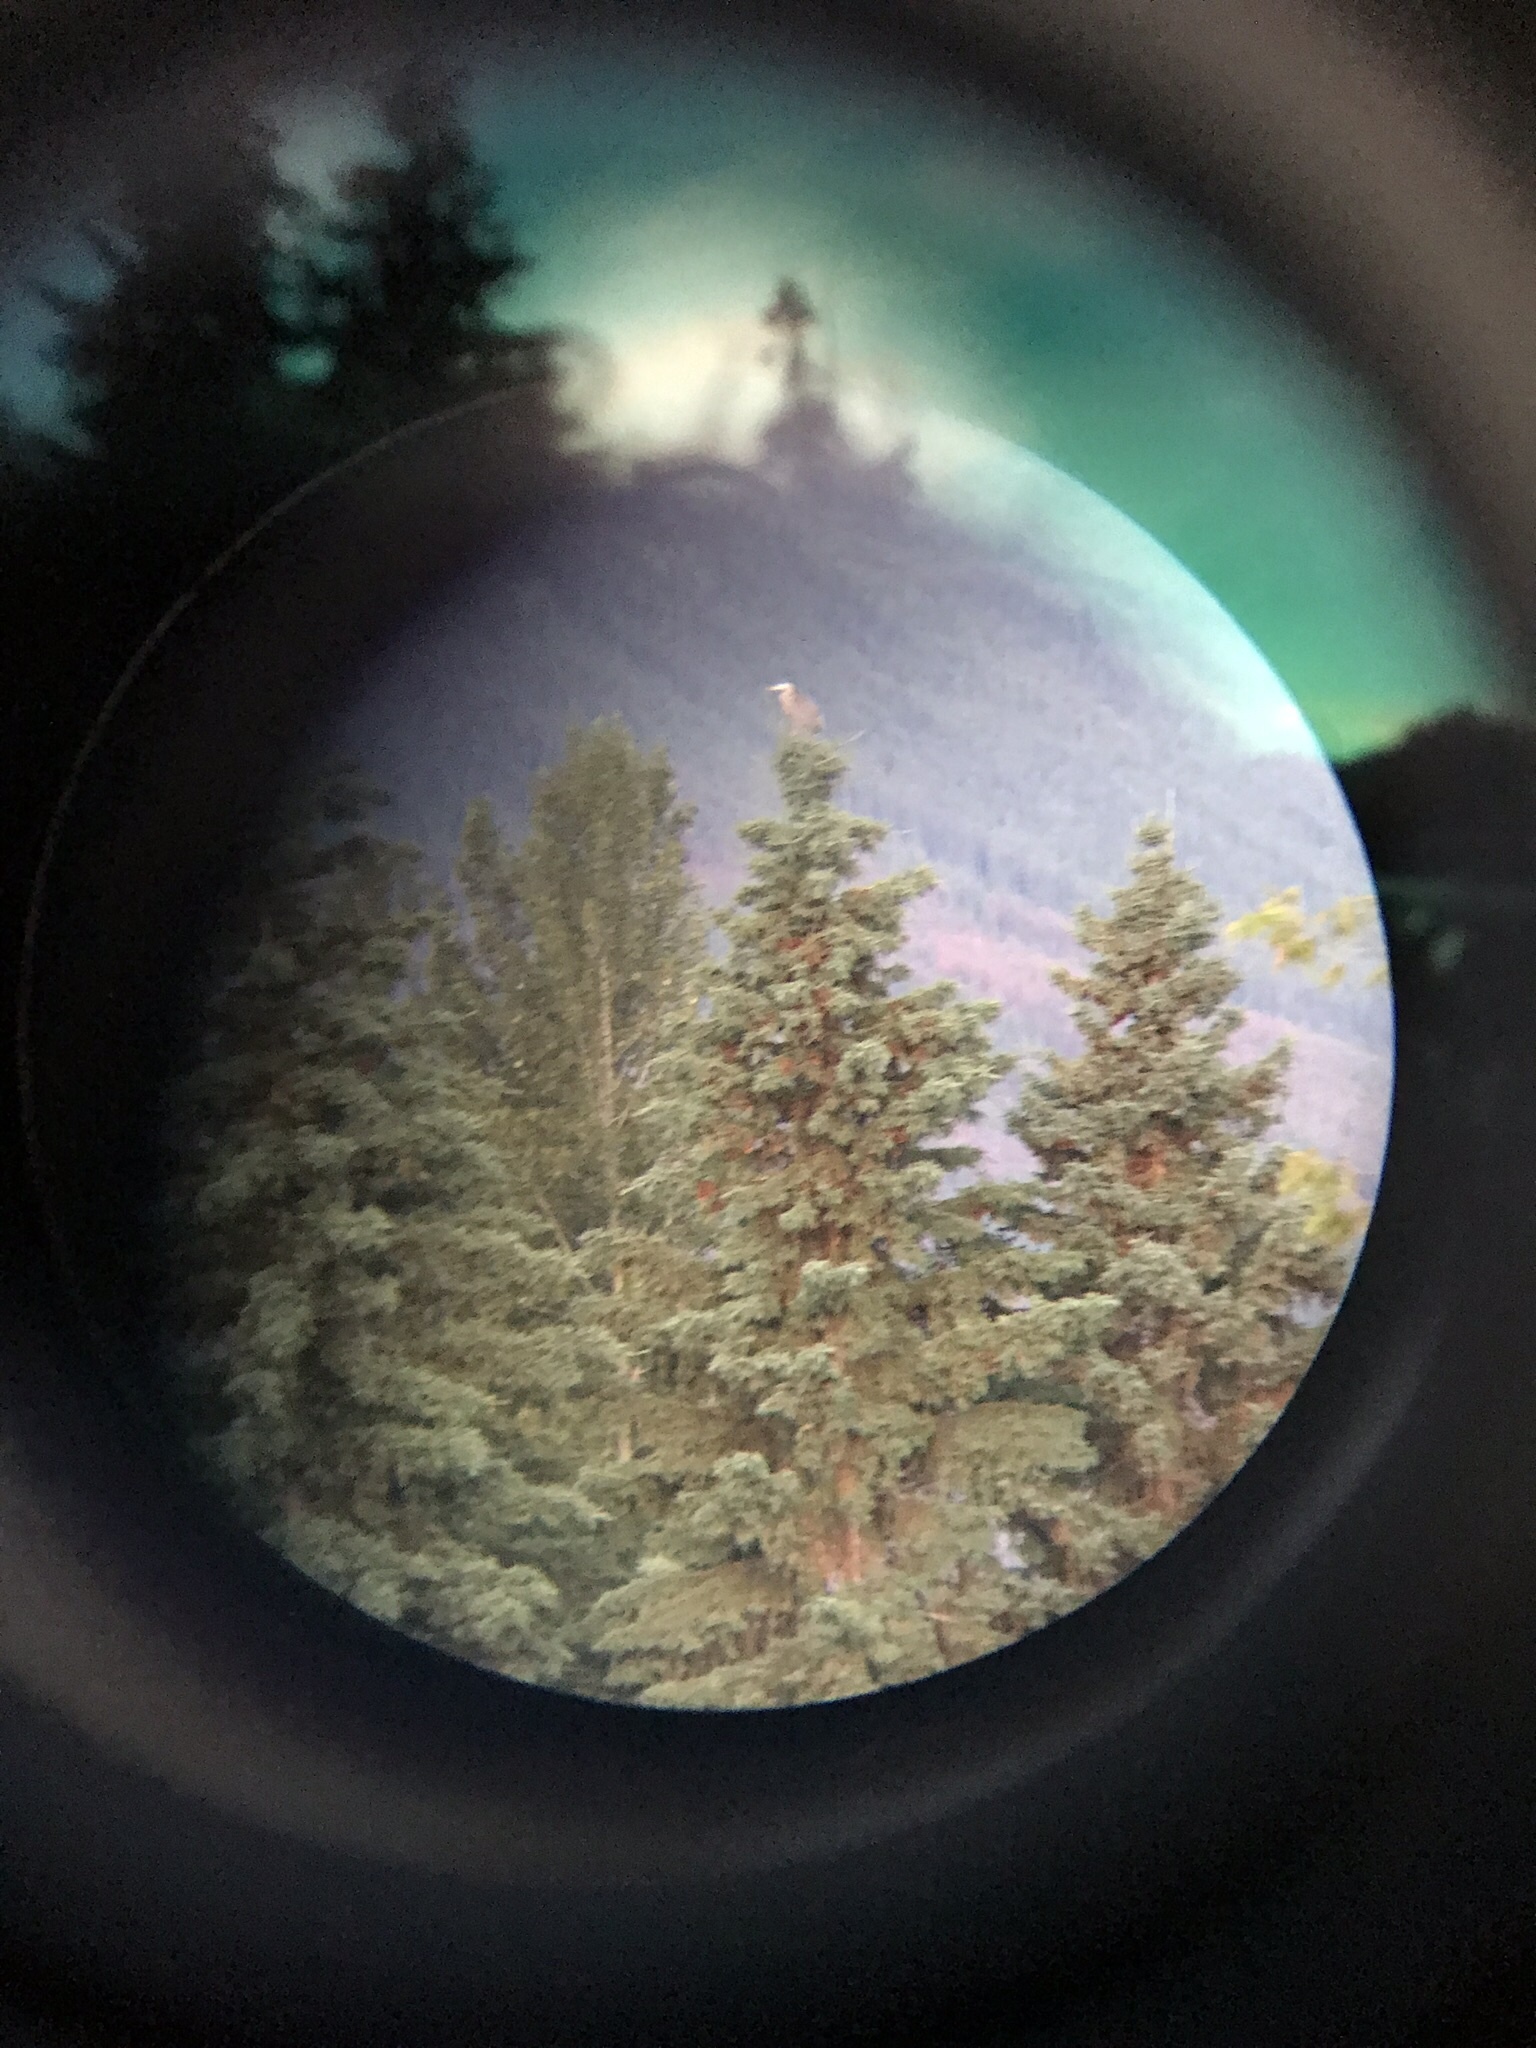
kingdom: Animalia
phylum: Chordata
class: Aves
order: Pelecaniformes
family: Ardeidae
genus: Ardea
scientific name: Ardea herodias
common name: Great blue heron
